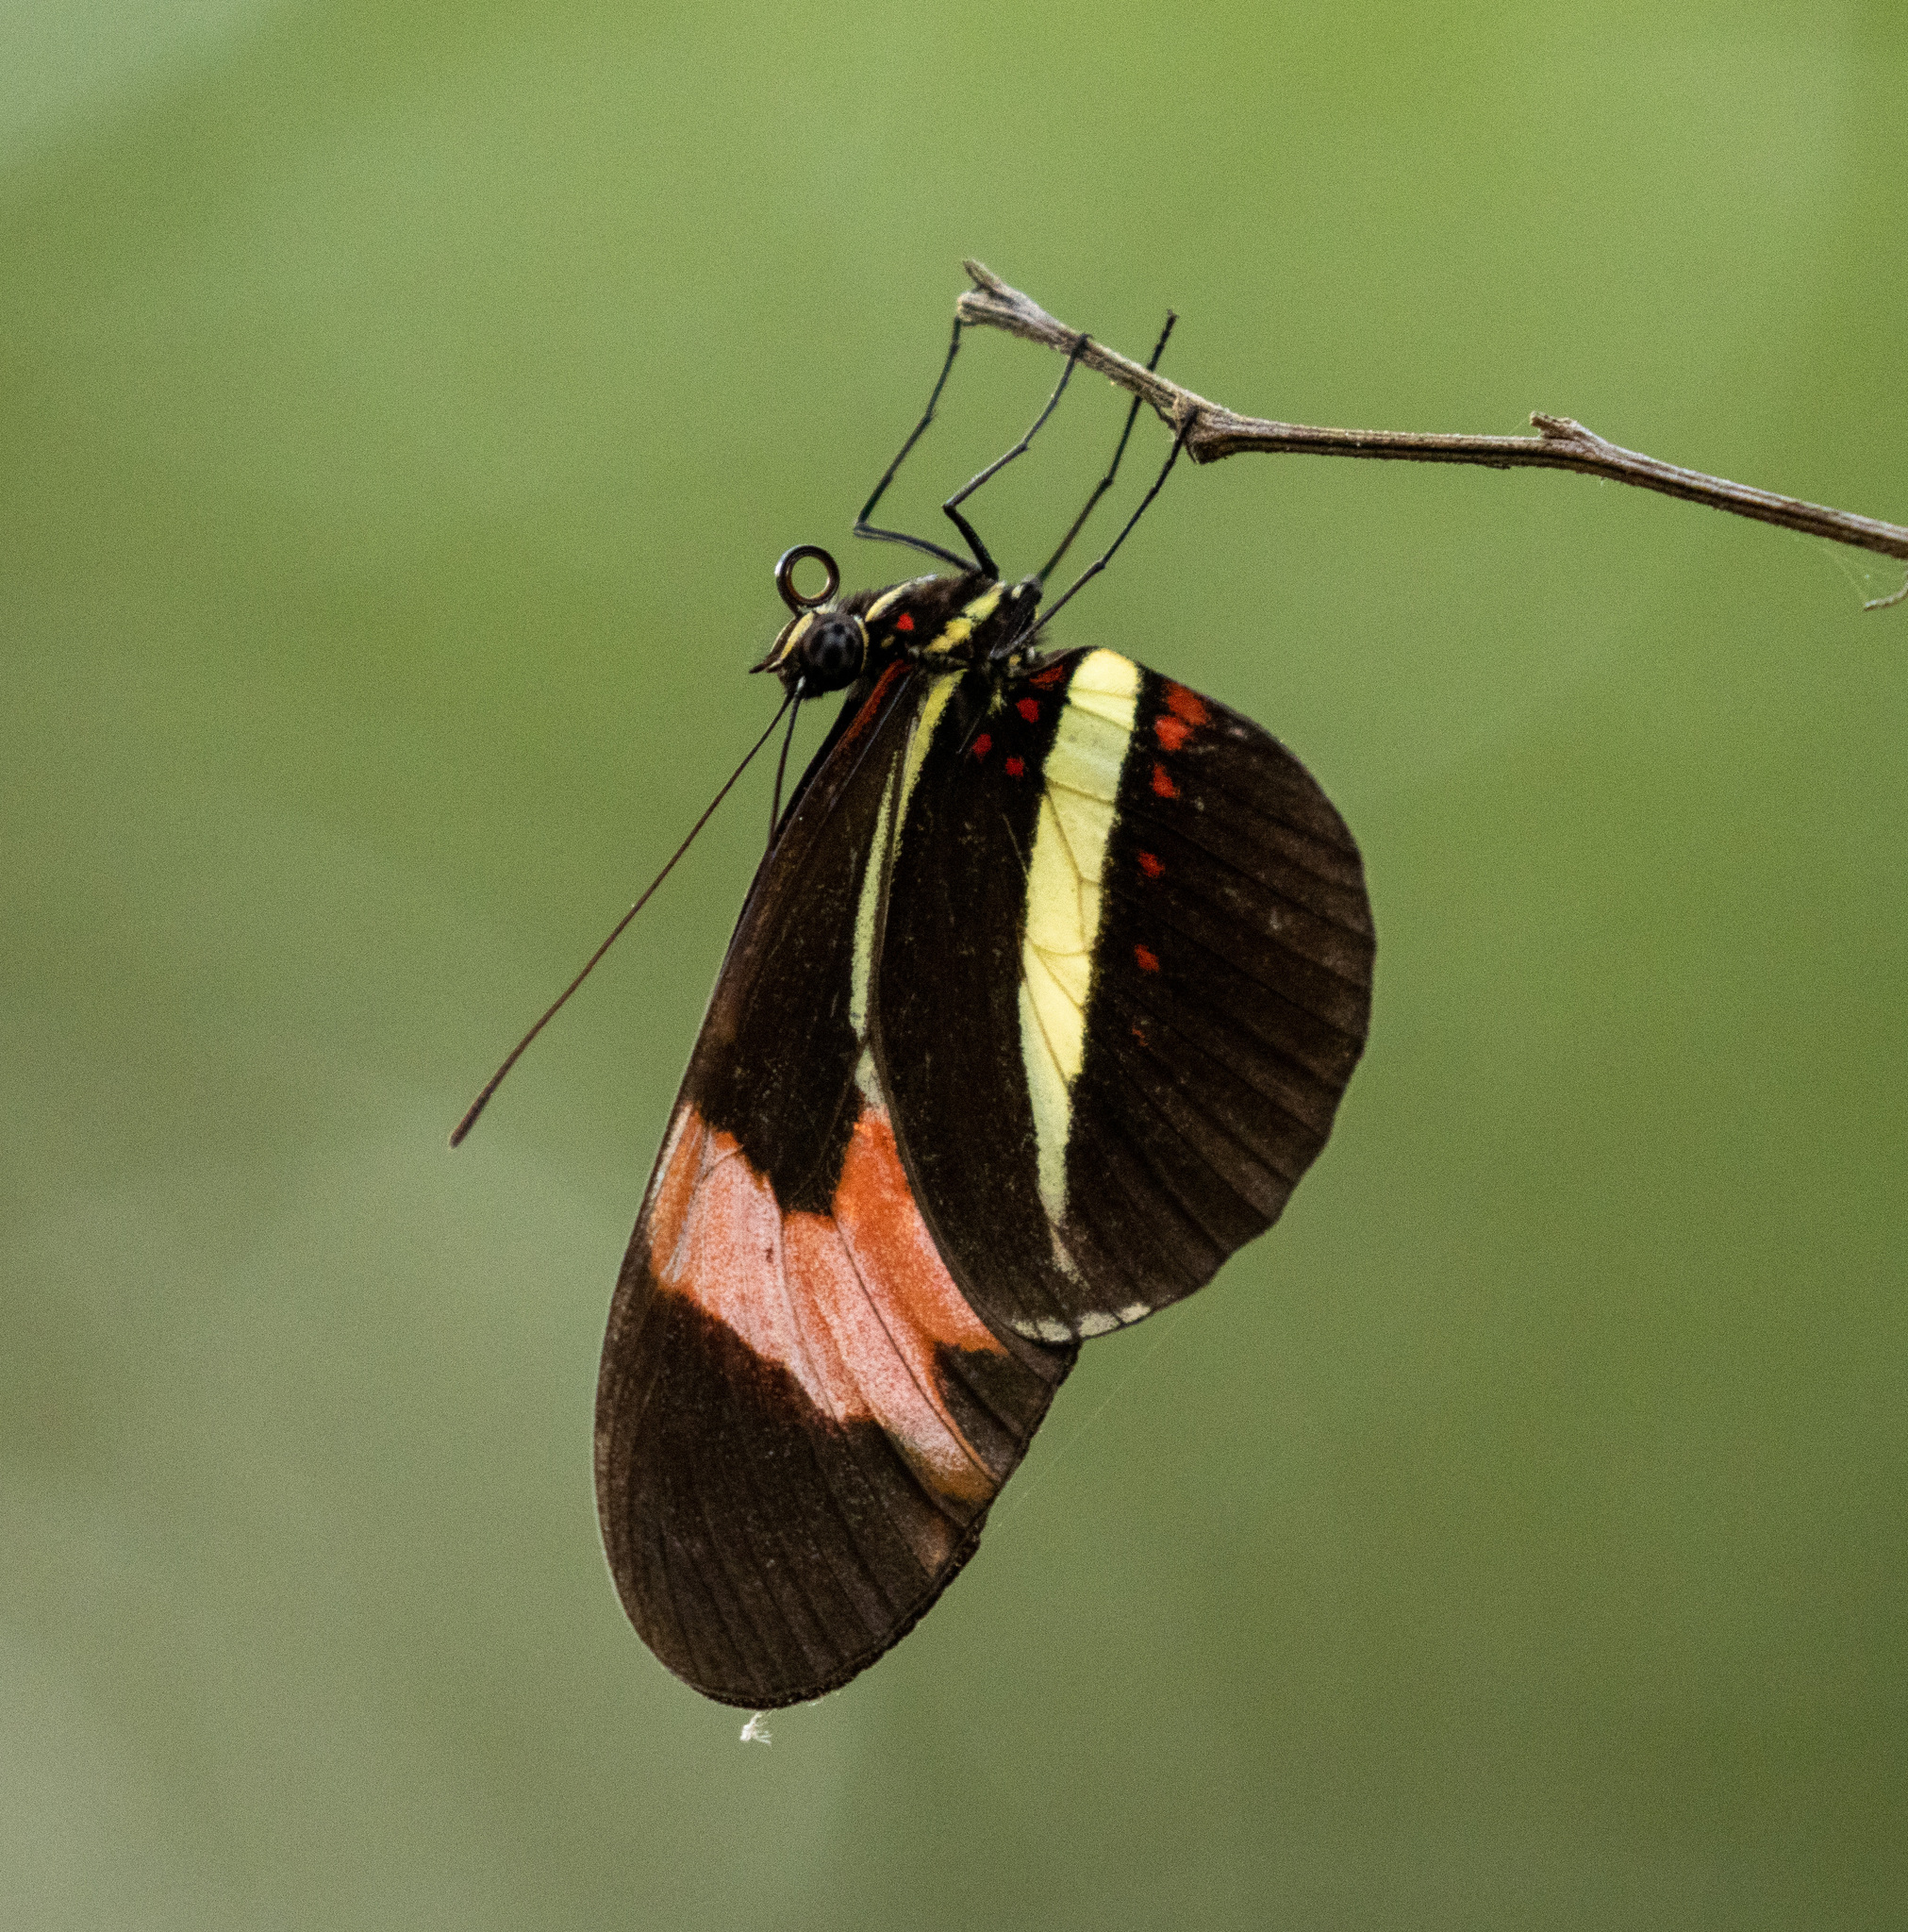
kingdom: Animalia
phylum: Arthropoda
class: Insecta
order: Lepidoptera
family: Nymphalidae
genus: Heliconius
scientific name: Heliconius erato
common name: Common patch longwing
